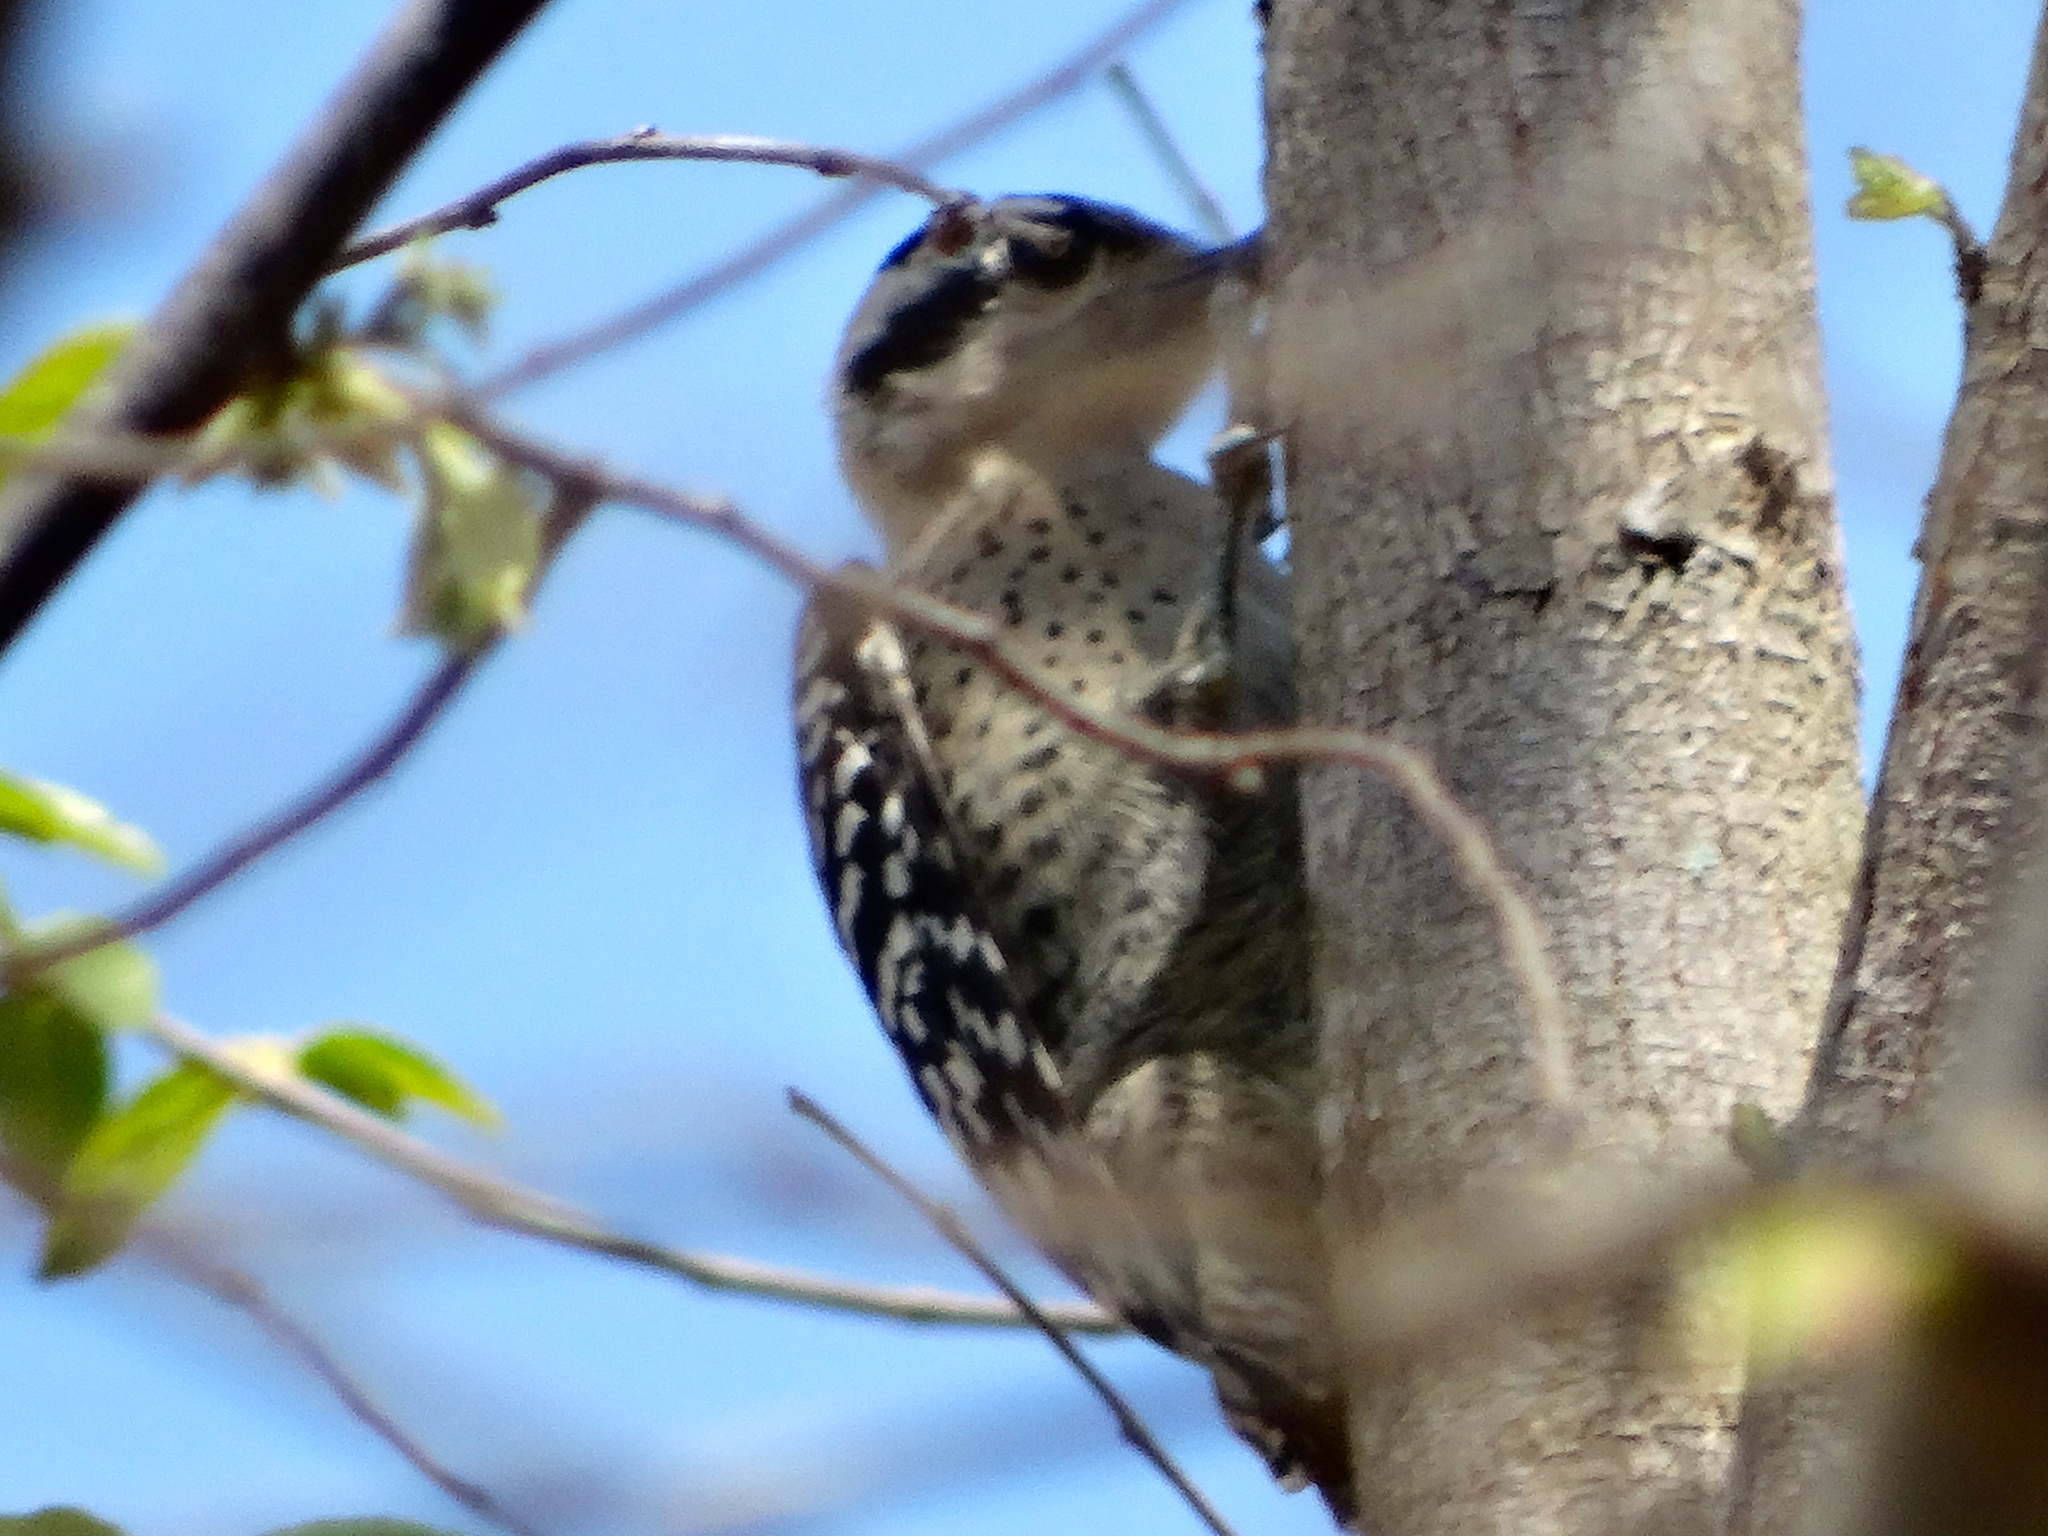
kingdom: Animalia
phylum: Chordata
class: Aves
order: Piciformes
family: Picidae
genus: Dryobates
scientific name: Dryobates scalaris
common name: Ladder-backed woodpecker
